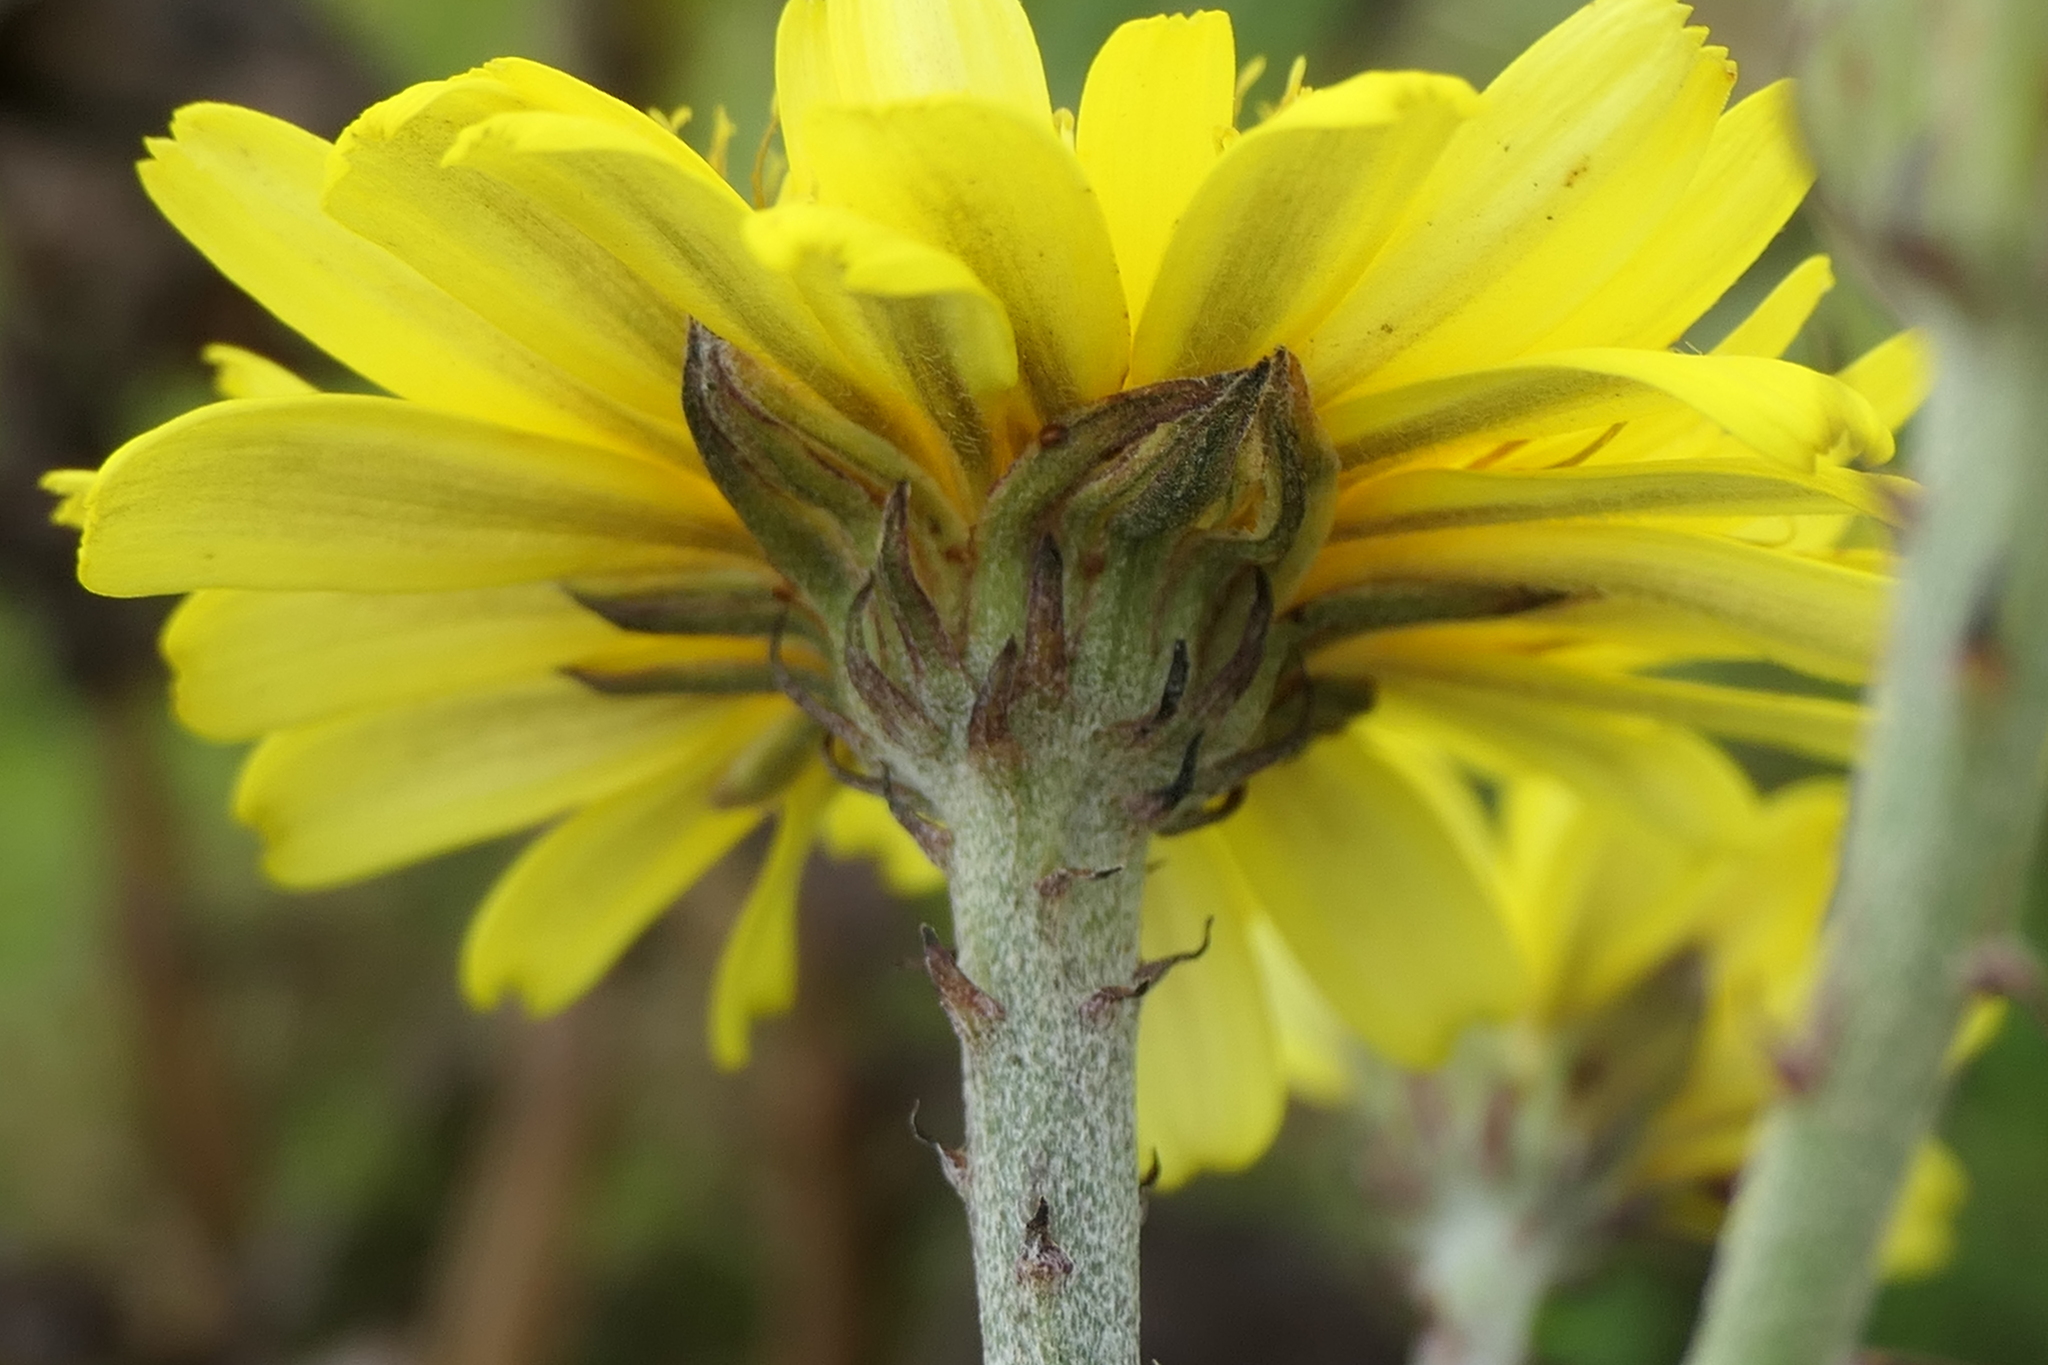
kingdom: Plantae
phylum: Tracheophyta
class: Magnoliopsida
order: Asterales
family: Asteraceae
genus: Tolpis
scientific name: Tolpis azorica
